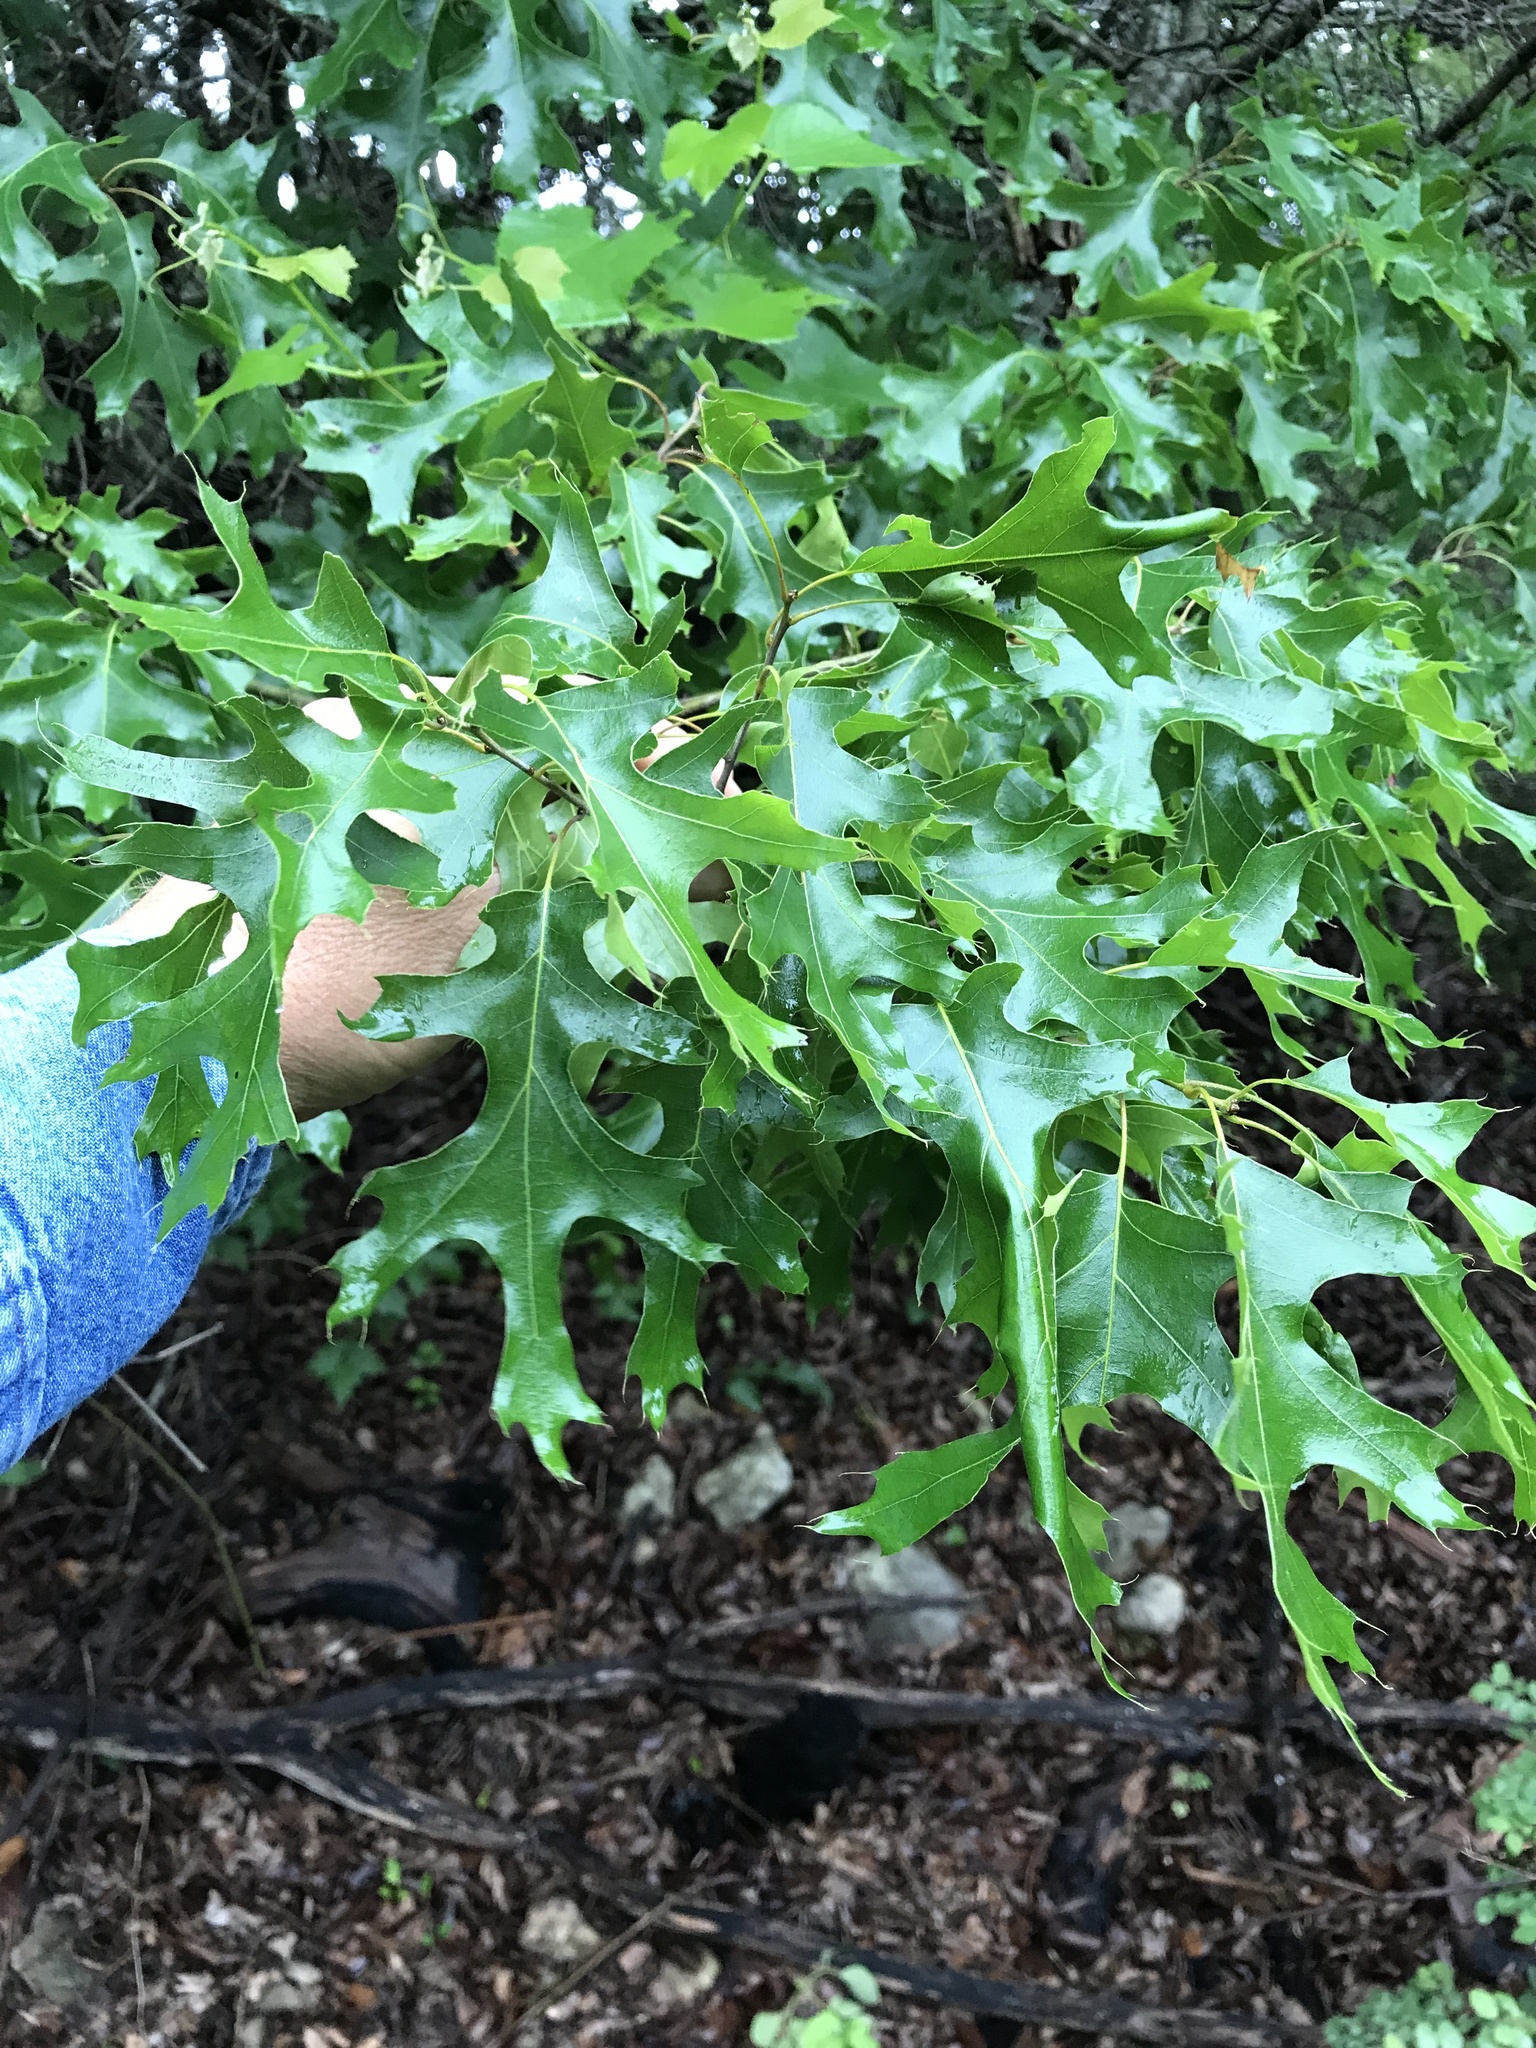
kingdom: Plantae
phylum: Tracheophyta
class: Magnoliopsida
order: Fagales
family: Fagaceae
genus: Quercus
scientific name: Quercus buckleyi
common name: Buckley oak
